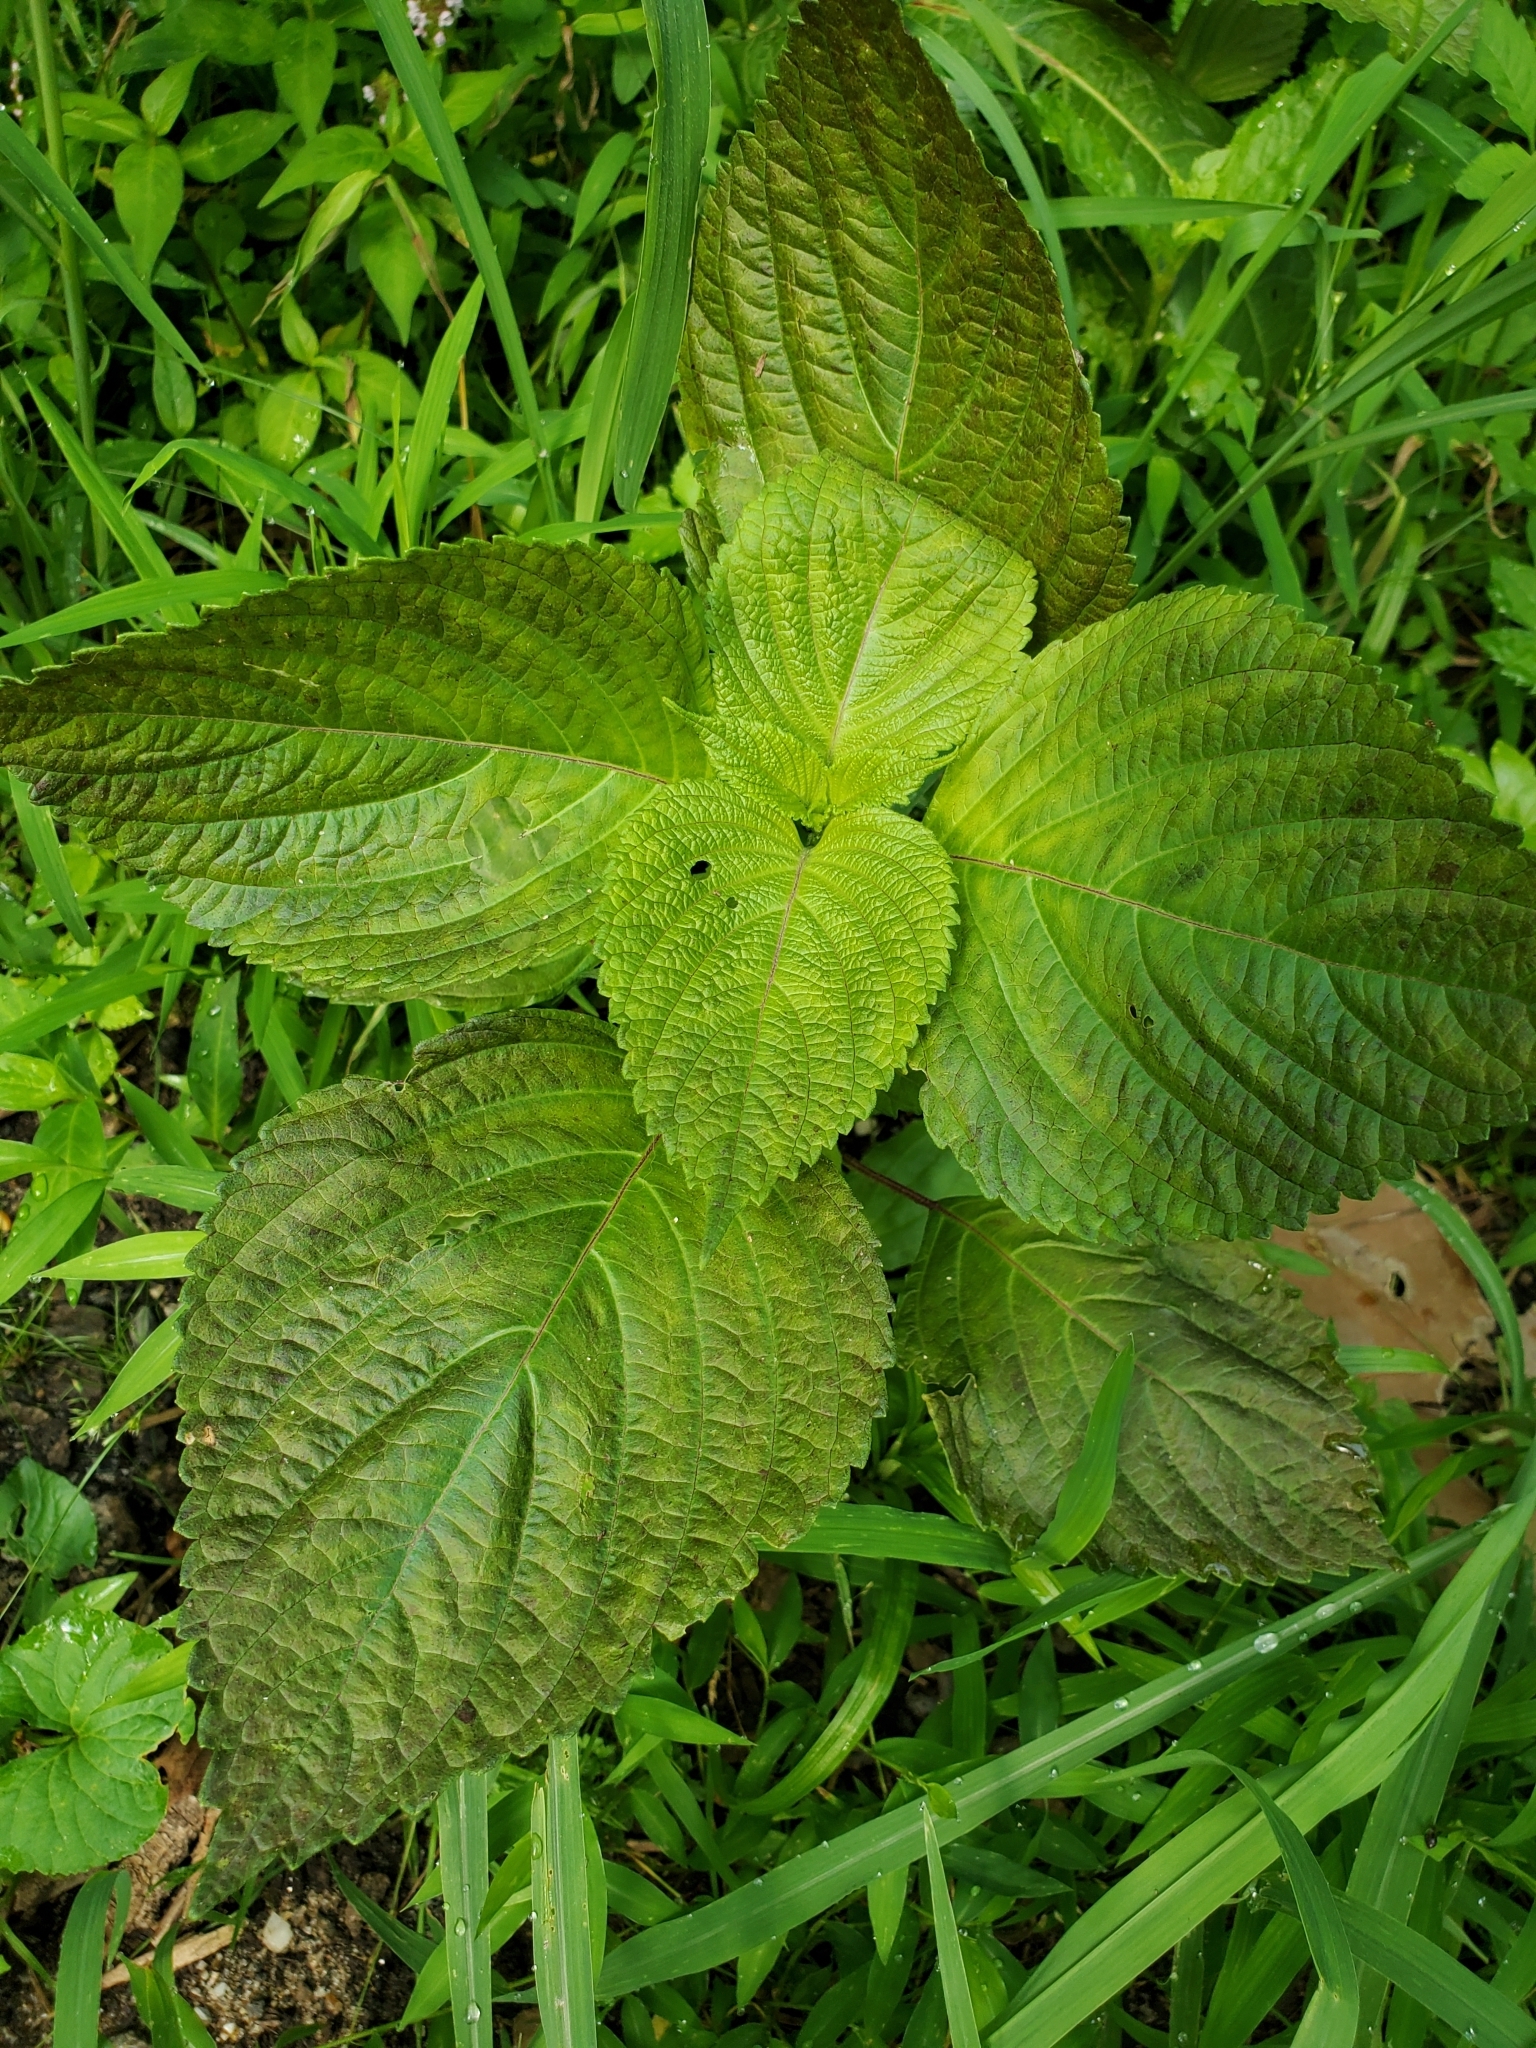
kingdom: Plantae
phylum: Tracheophyta
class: Magnoliopsida
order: Lamiales
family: Lamiaceae
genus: Perilla
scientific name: Perilla frutescens
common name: Perilla
